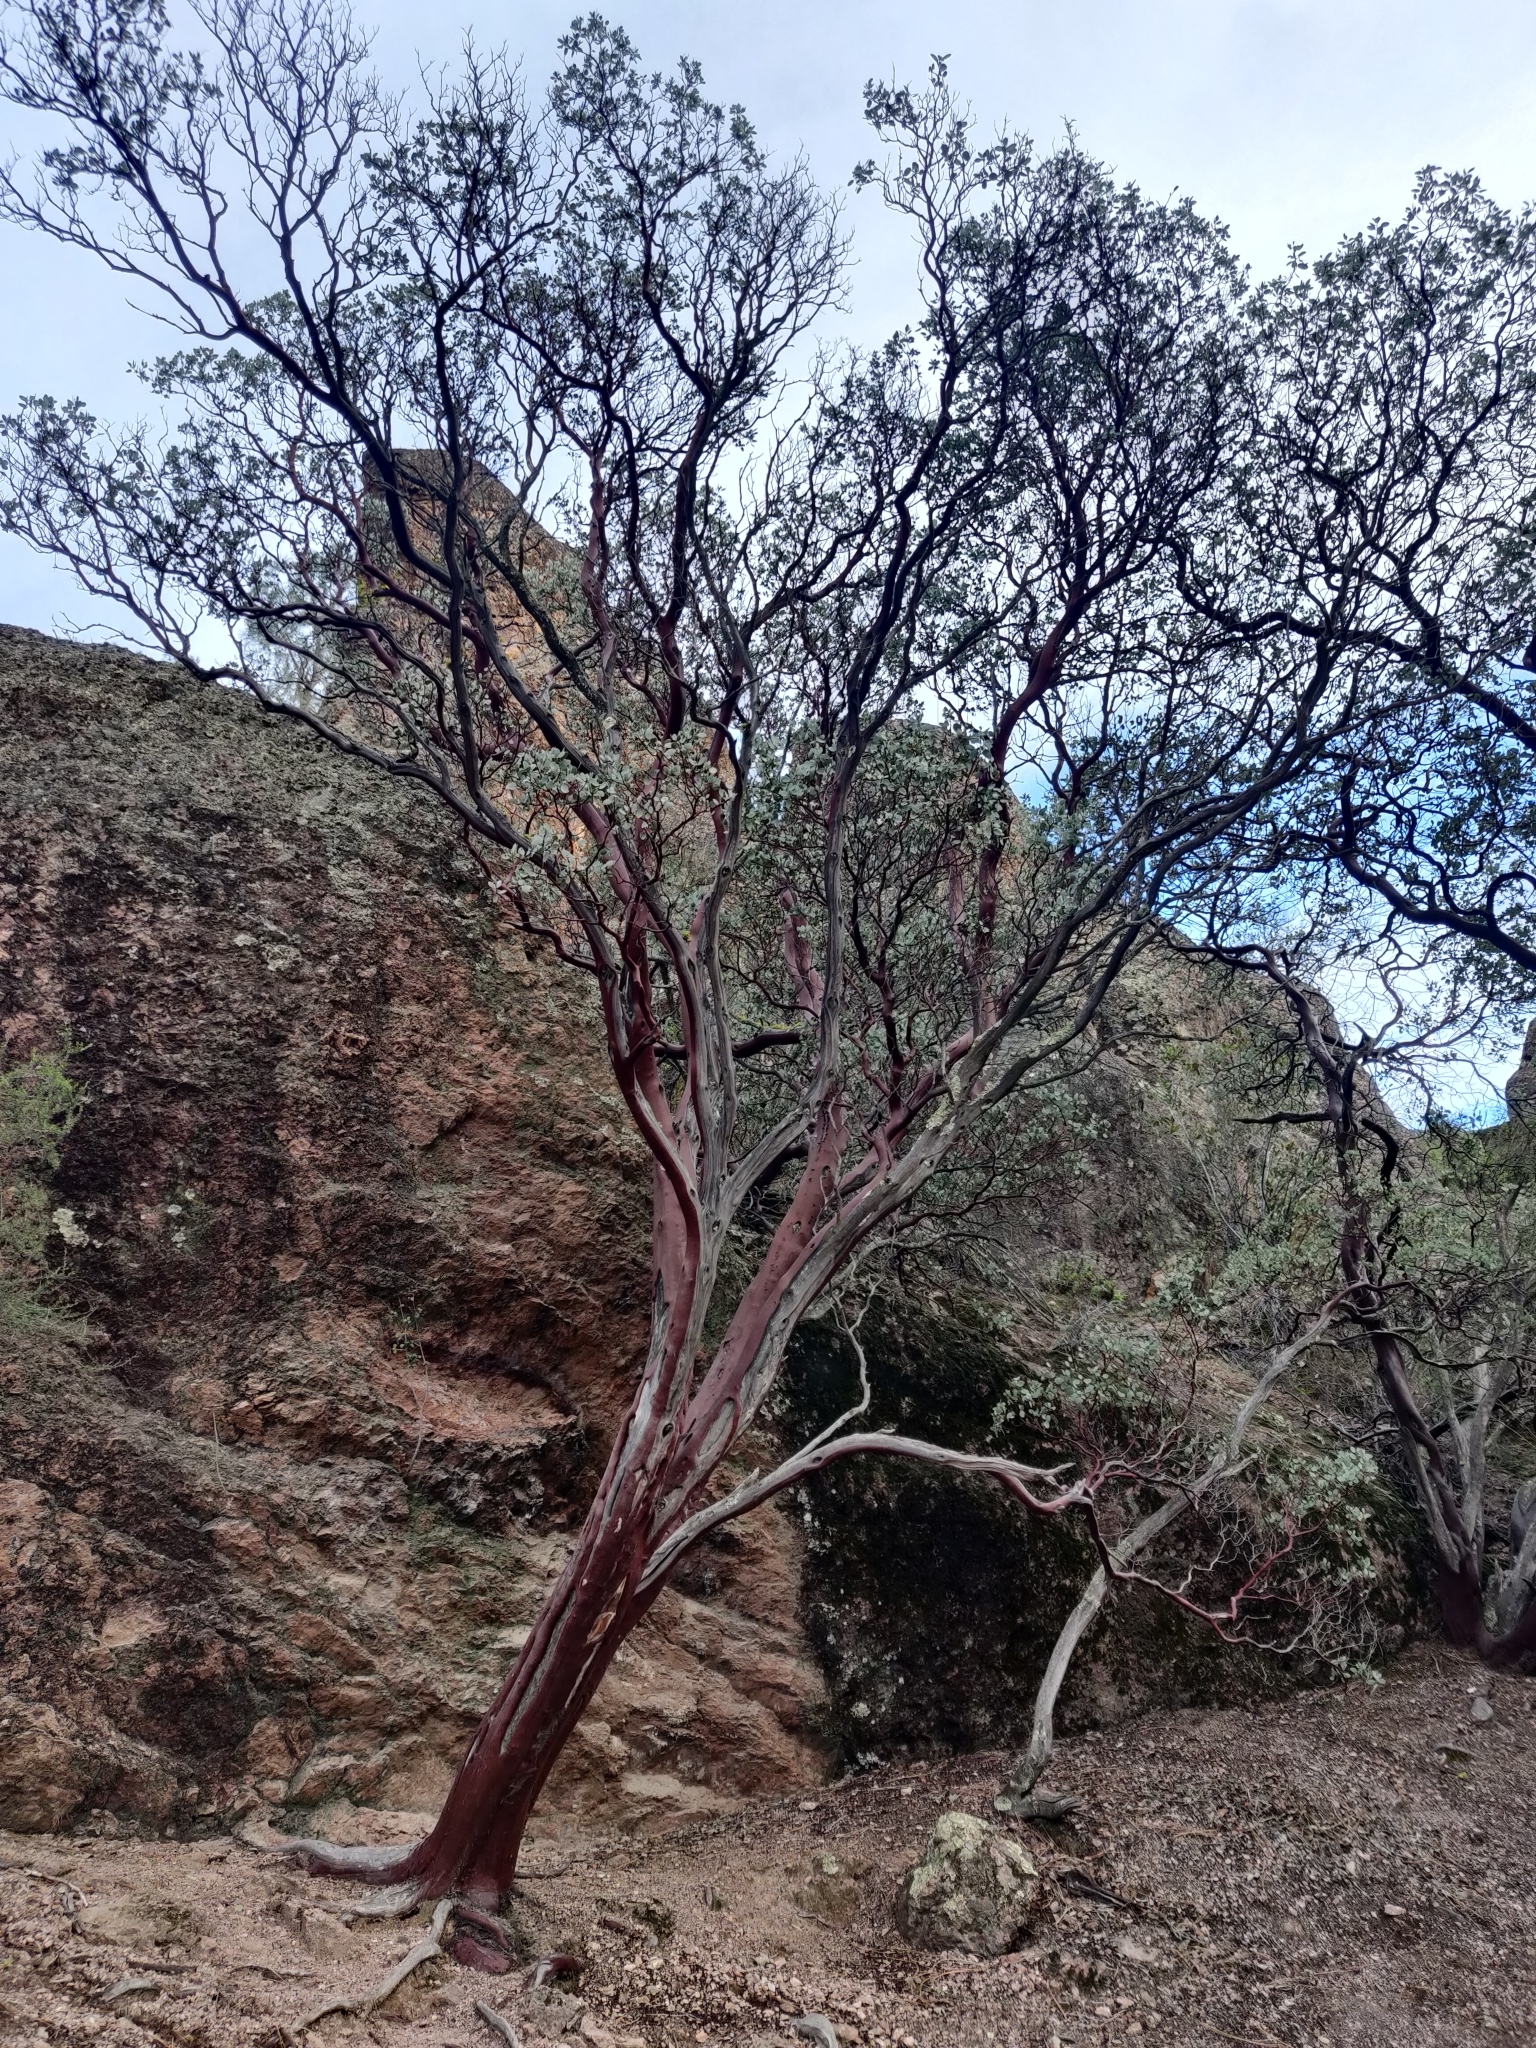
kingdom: Plantae
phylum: Tracheophyta
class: Magnoliopsida
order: Ericales
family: Ericaceae
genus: Arctostaphylos
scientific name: Arctostaphylos glauca
